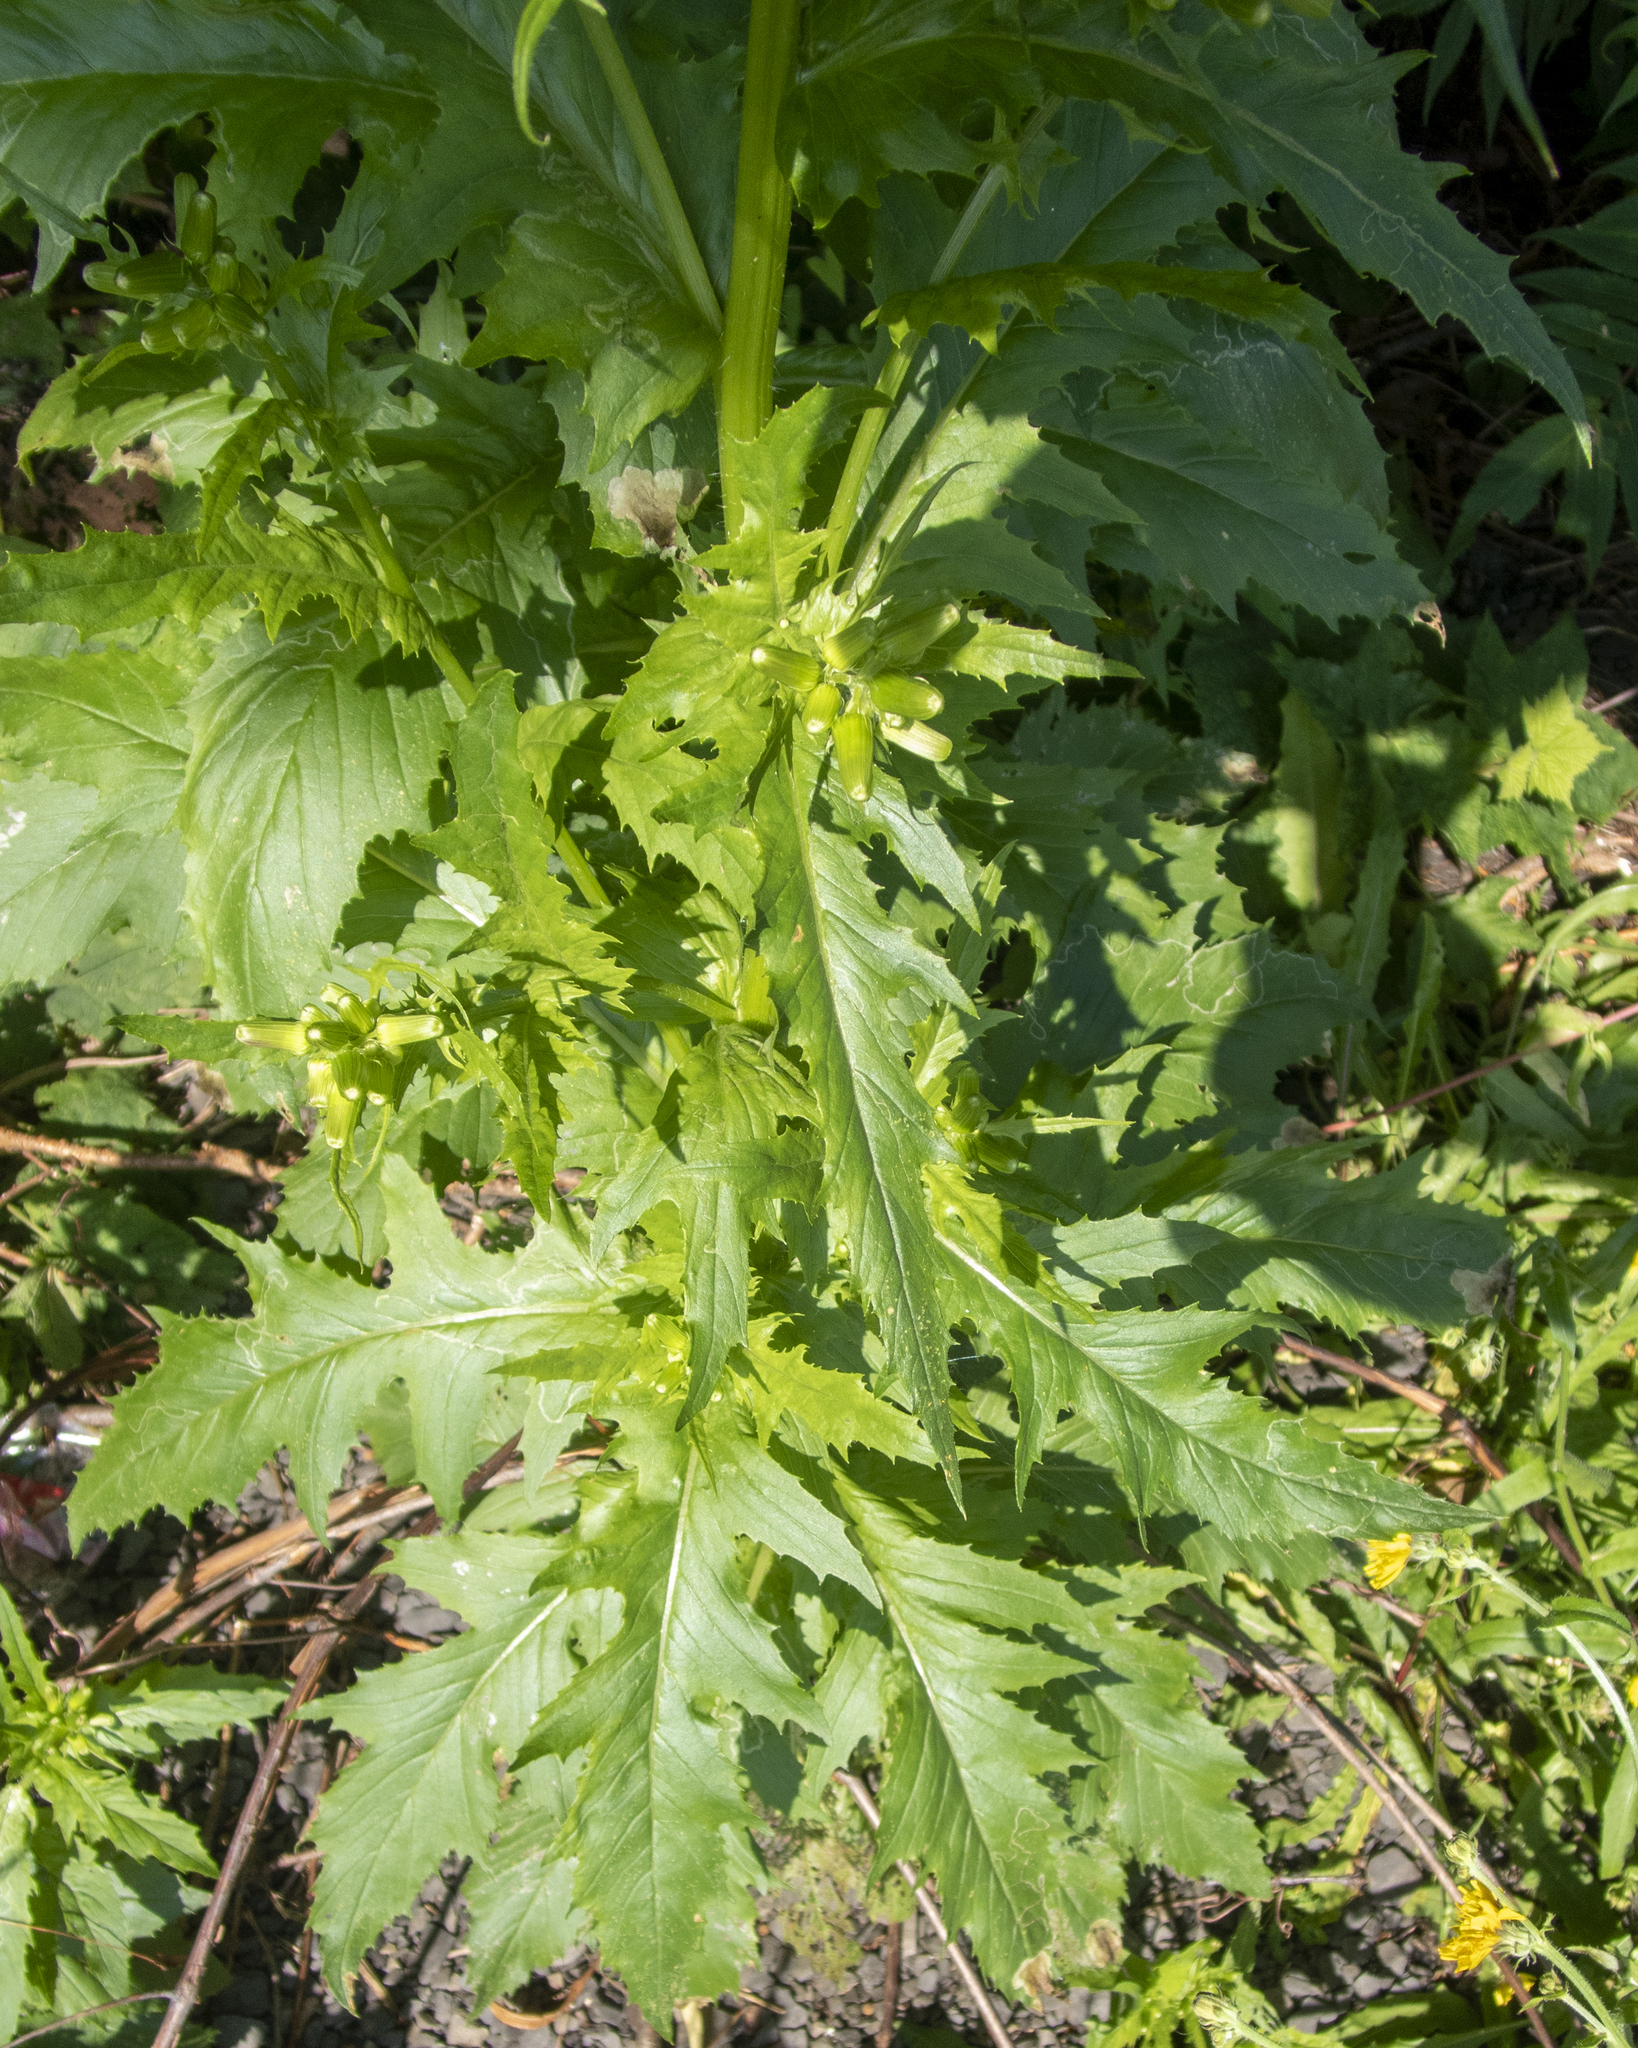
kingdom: Plantae
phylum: Tracheophyta
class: Magnoliopsida
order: Asterales
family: Asteraceae
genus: Erechtites
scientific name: Erechtites hieraciifolius
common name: American burnweed
